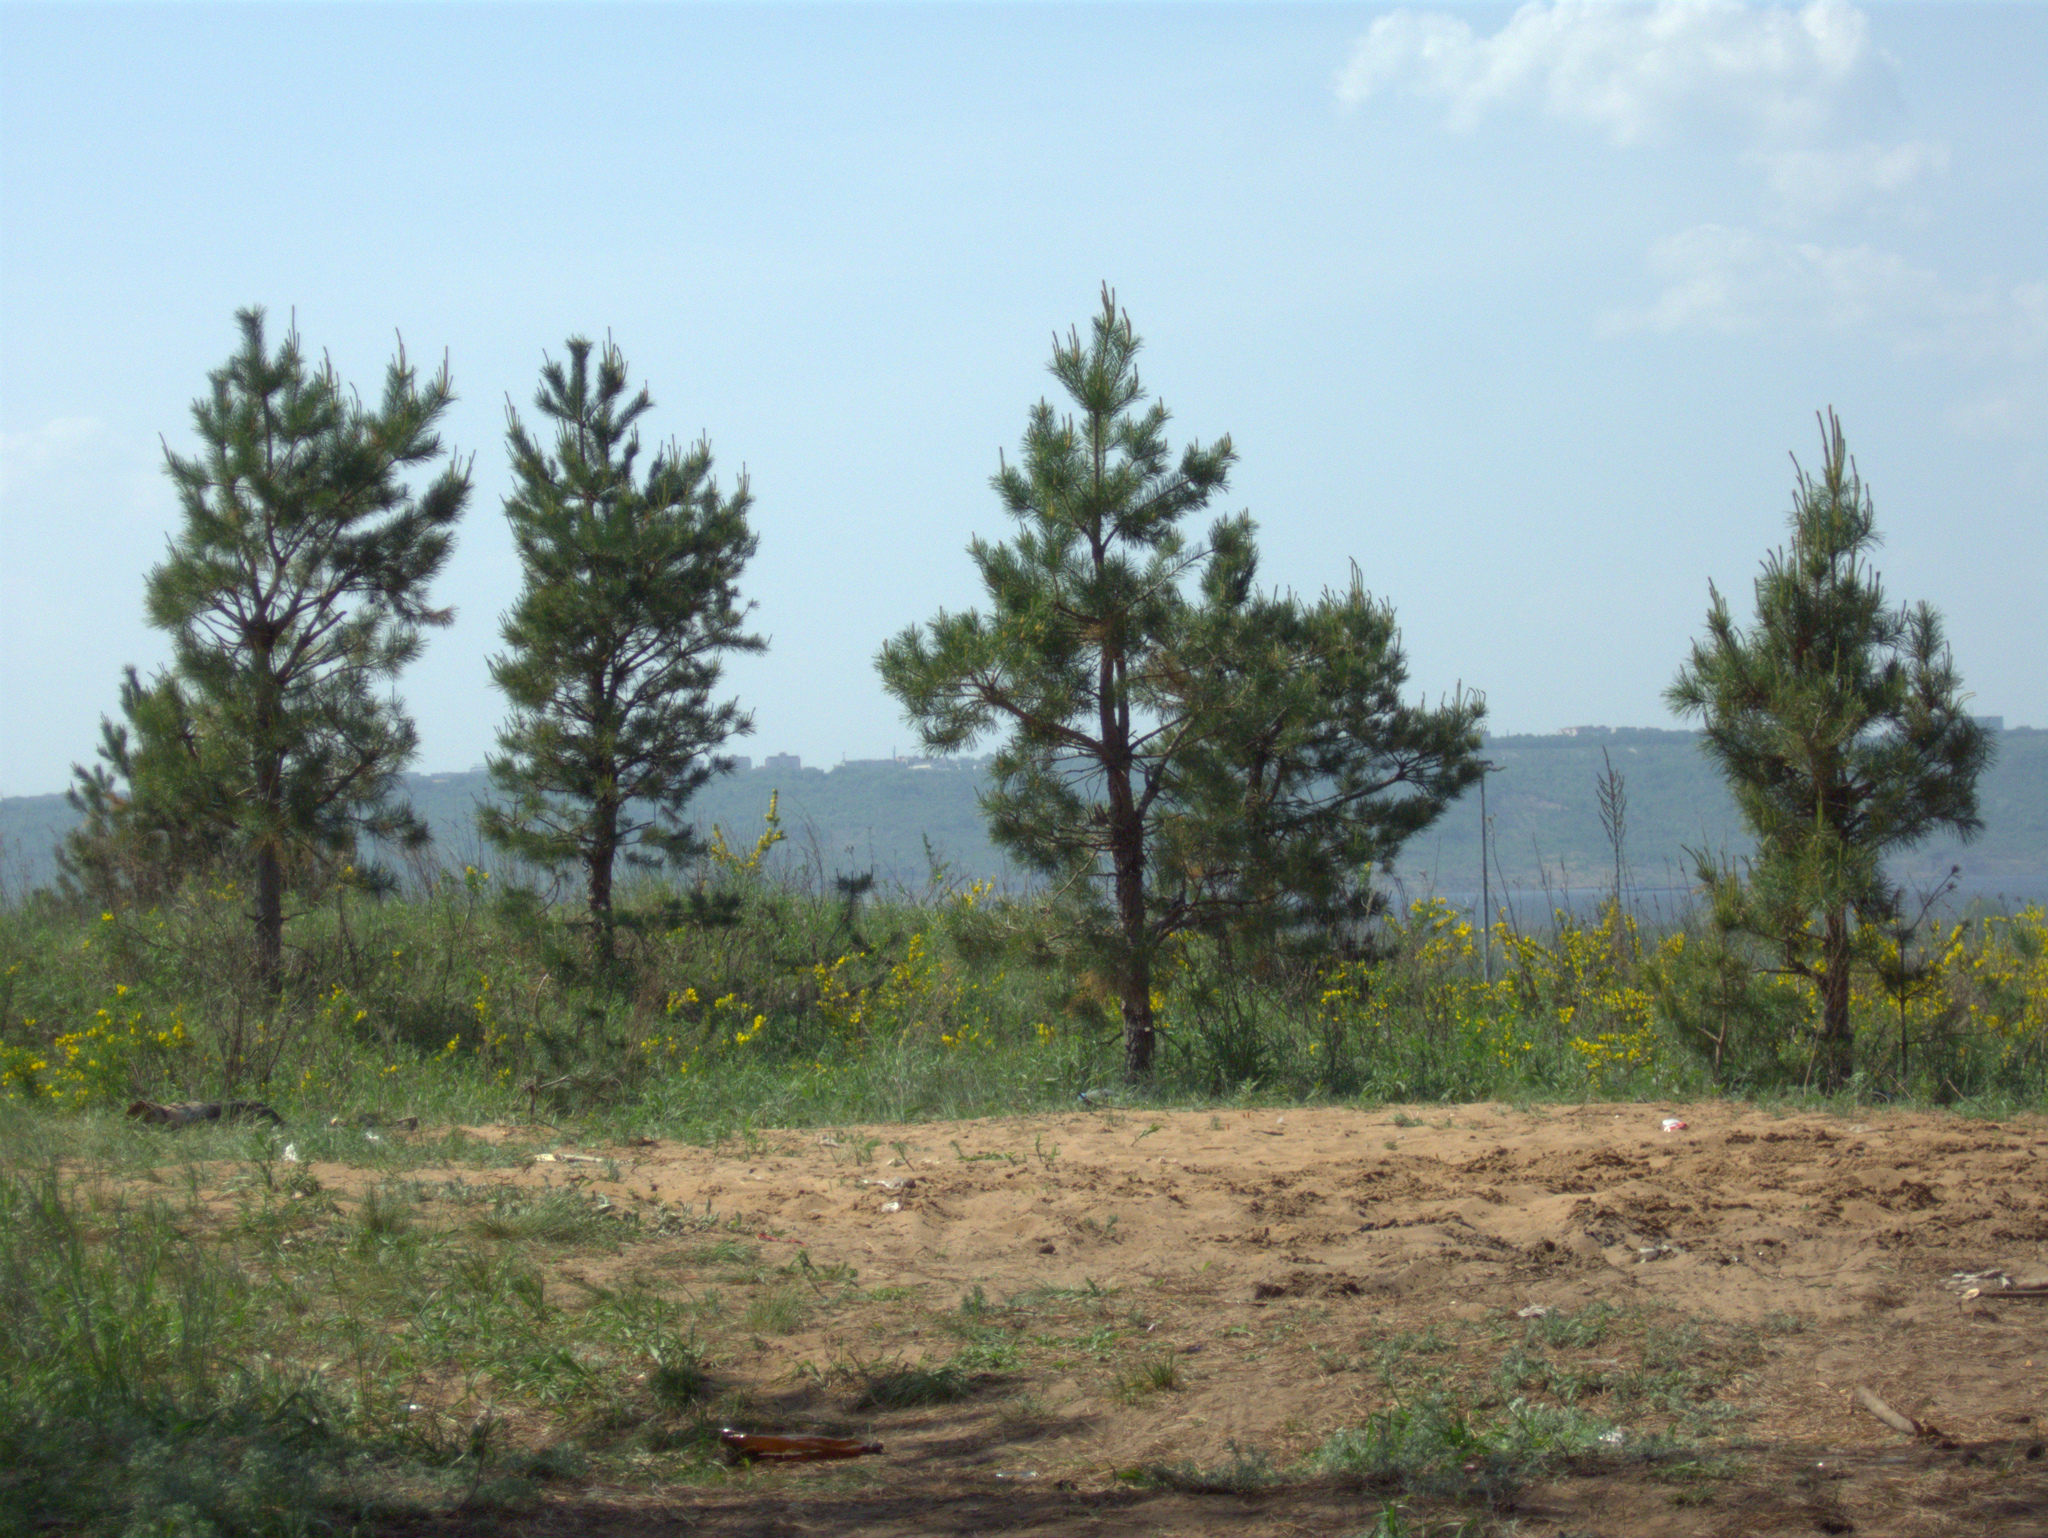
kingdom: Plantae
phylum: Tracheophyta
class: Pinopsida
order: Pinales
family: Pinaceae
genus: Pinus
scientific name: Pinus sylvestris
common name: Scots pine
